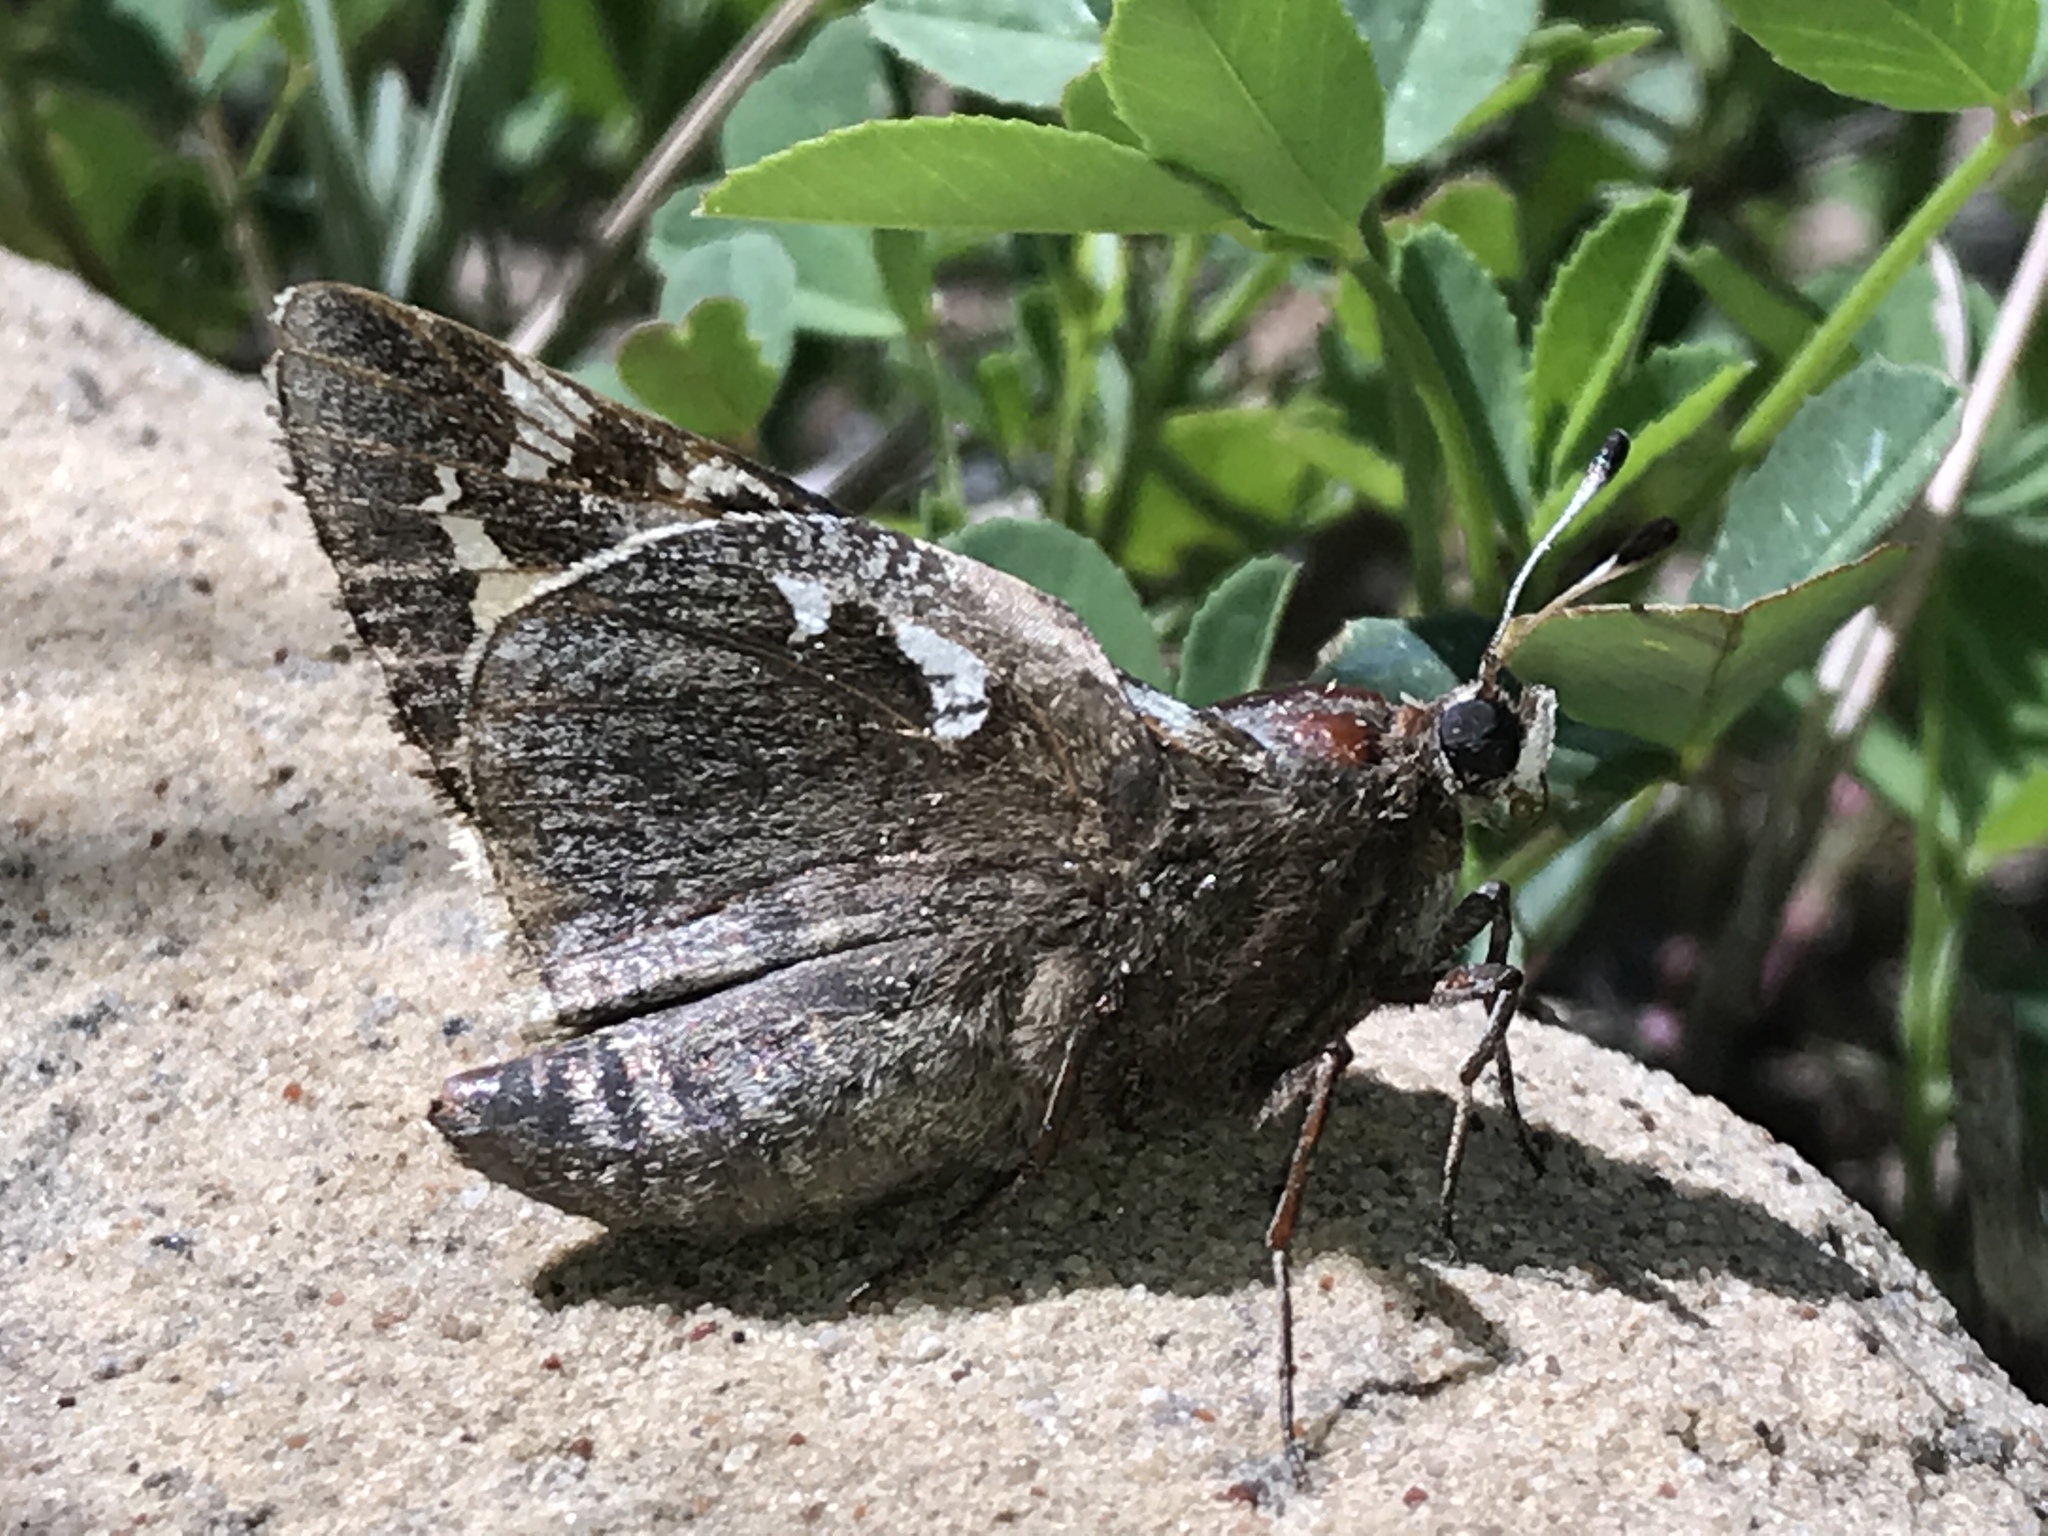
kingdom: Animalia
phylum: Arthropoda
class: Insecta
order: Lepidoptera
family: Hesperiidae
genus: Megathymus
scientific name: Megathymus yuccae
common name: Yucca giant-skipper
